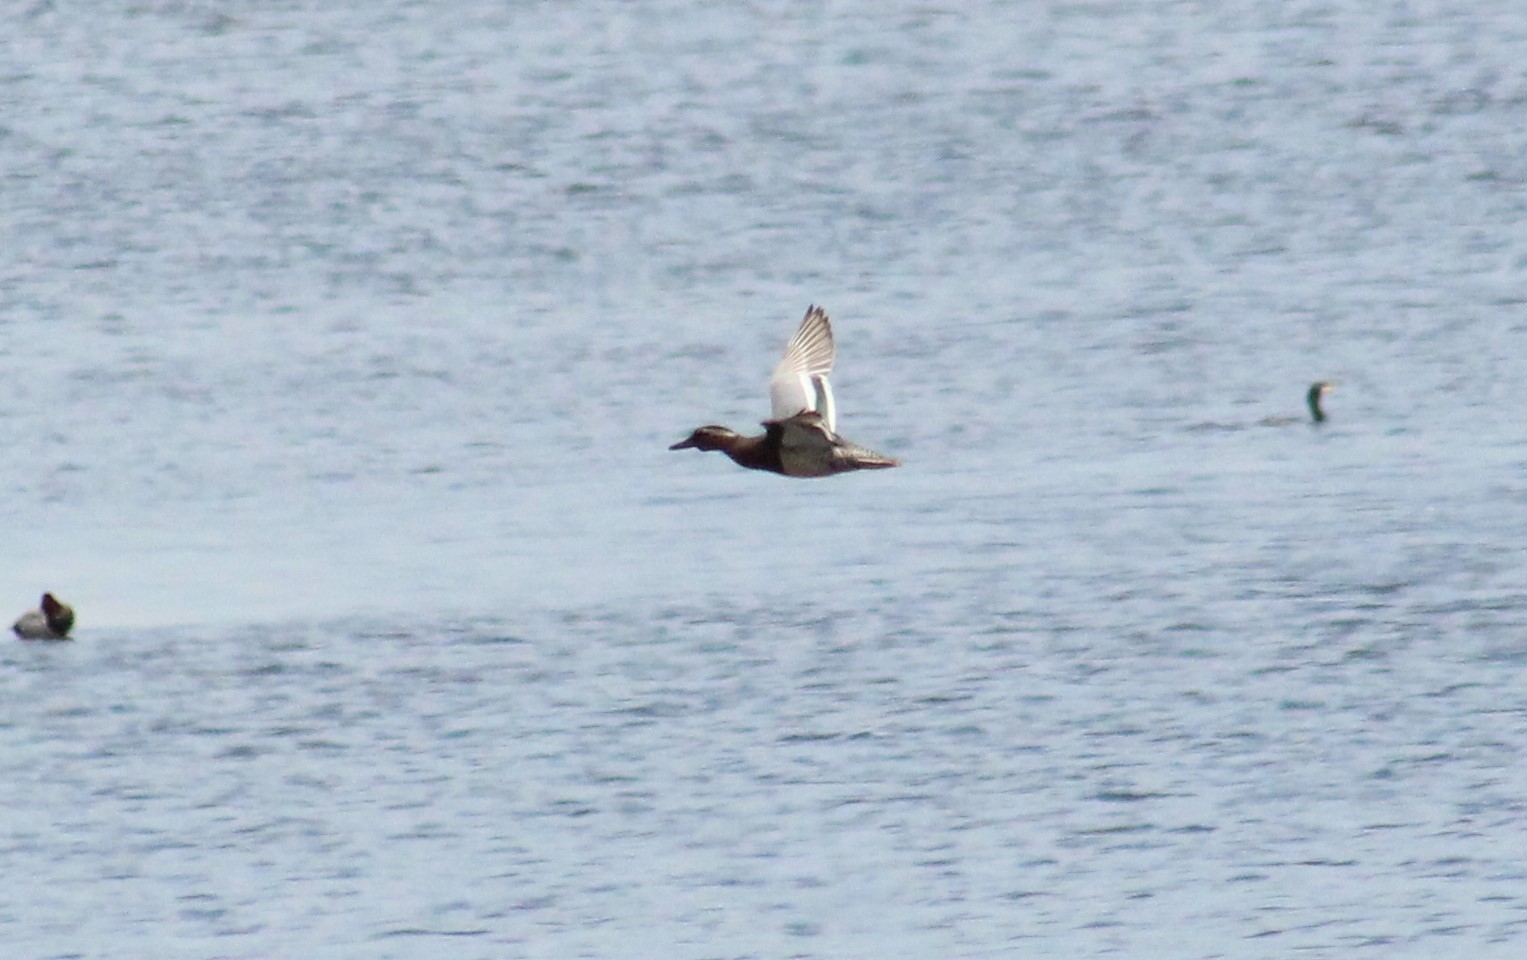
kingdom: Animalia
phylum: Chordata
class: Aves
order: Anseriformes
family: Anatidae
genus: Spatula
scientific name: Spatula querquedula
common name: Garganey
